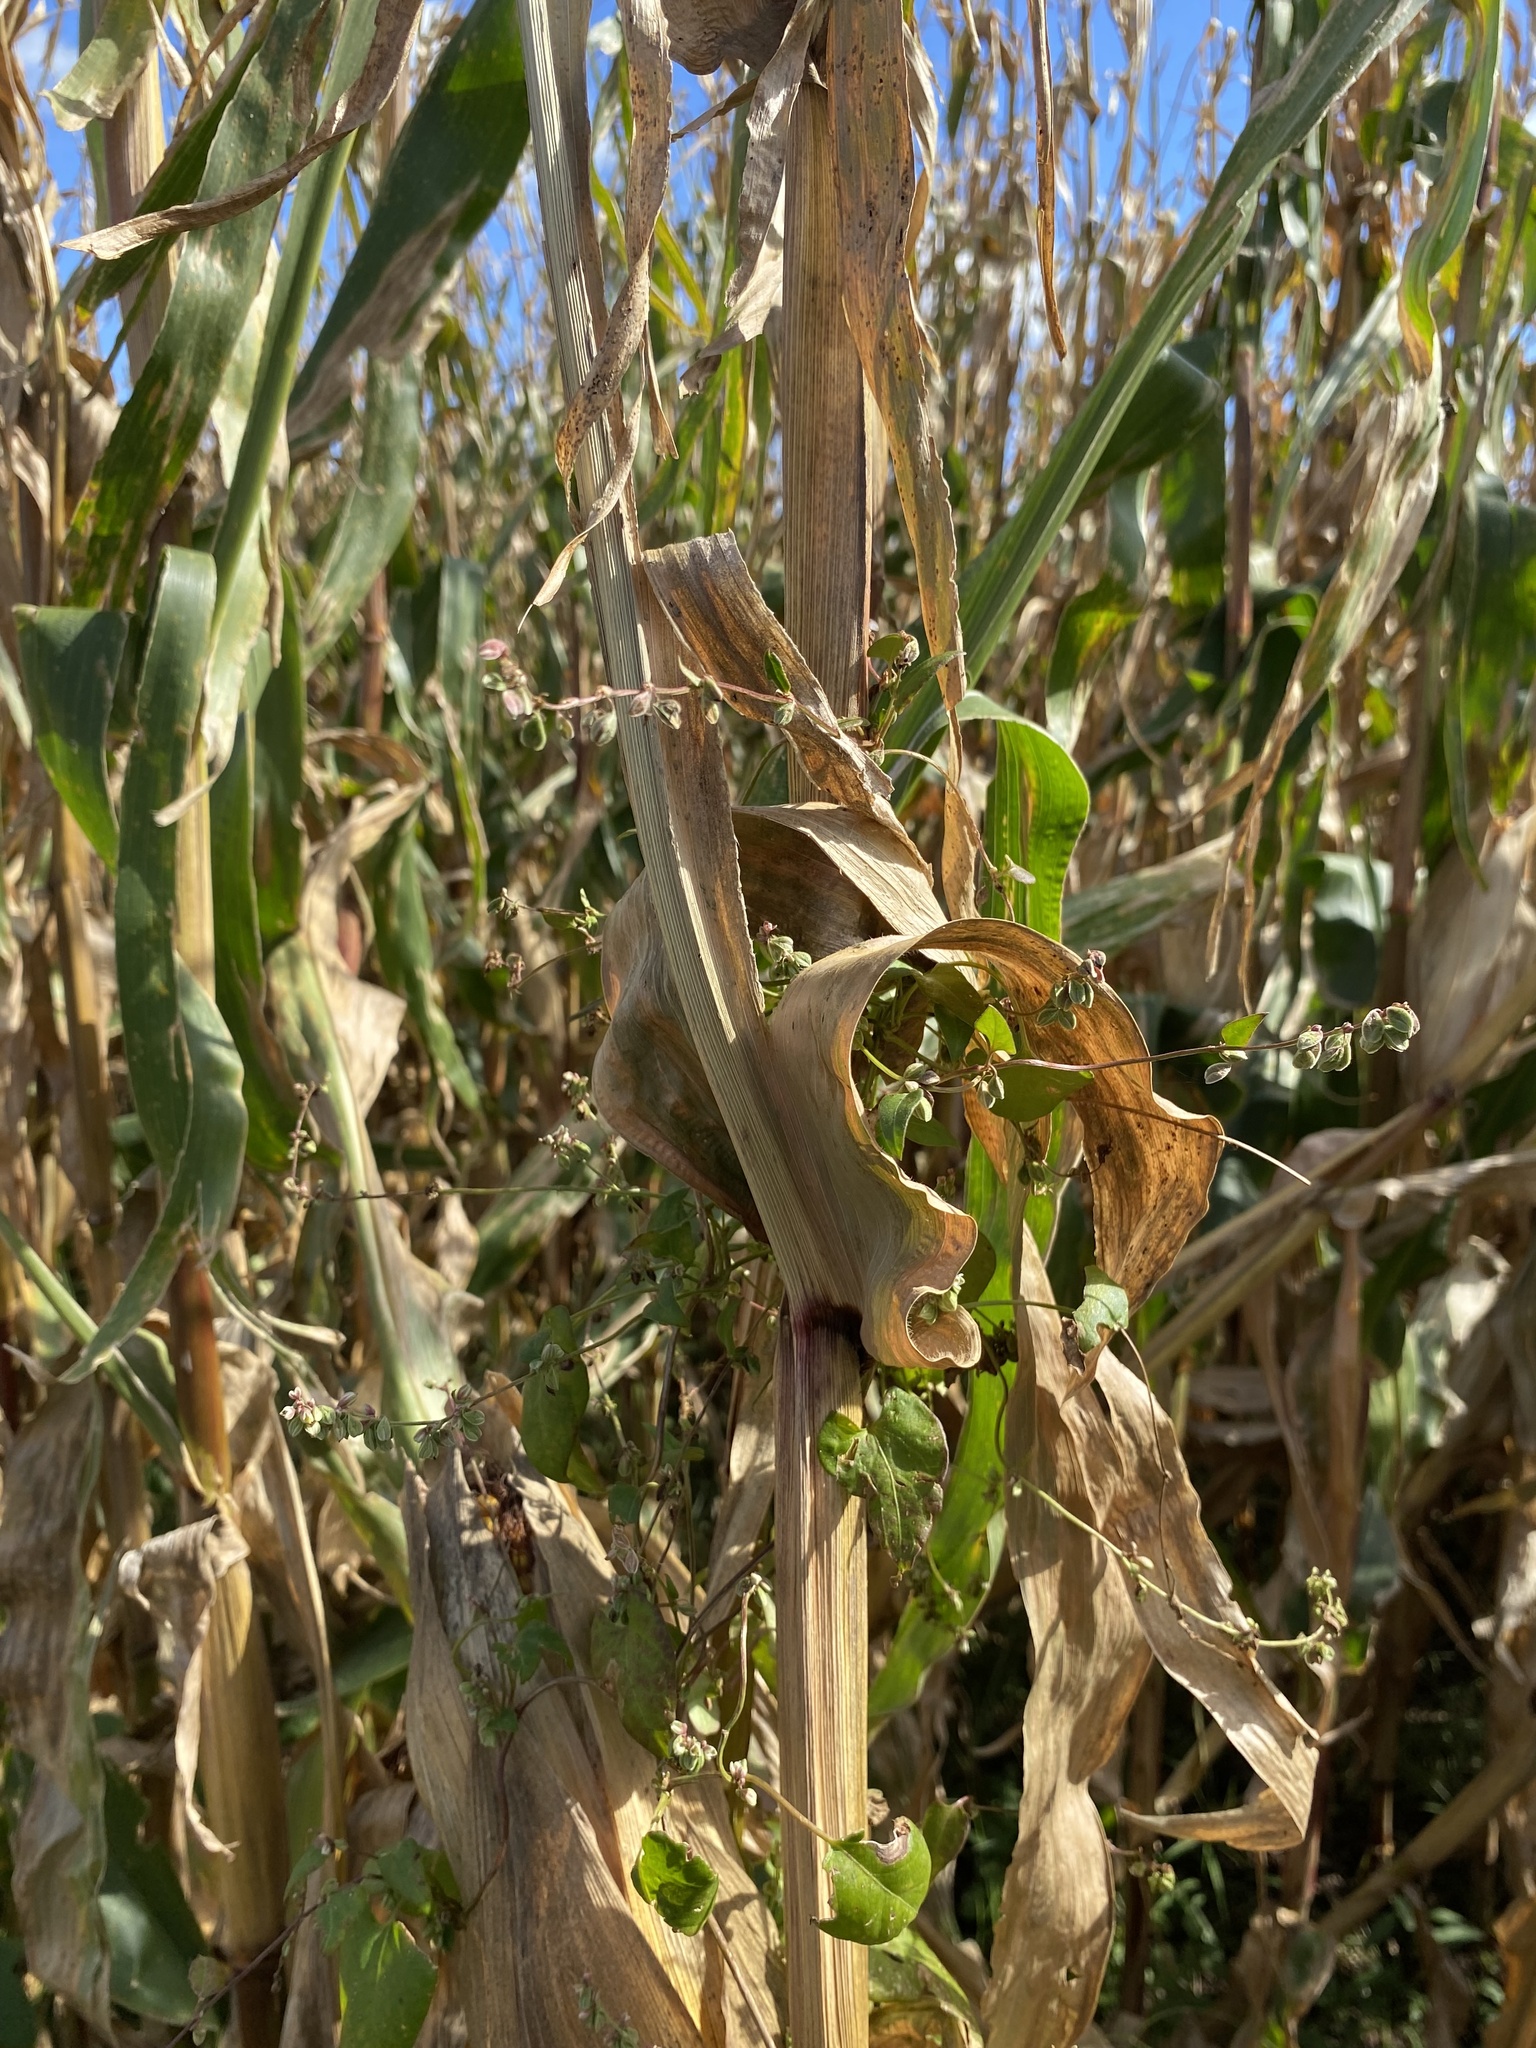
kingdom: Plantae
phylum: Tracheophyta
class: Magnoliopsida
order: Caryophyllales
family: Polygonaceae
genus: Fallopia
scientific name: Fallopia convolvulus
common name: Black bindweed
